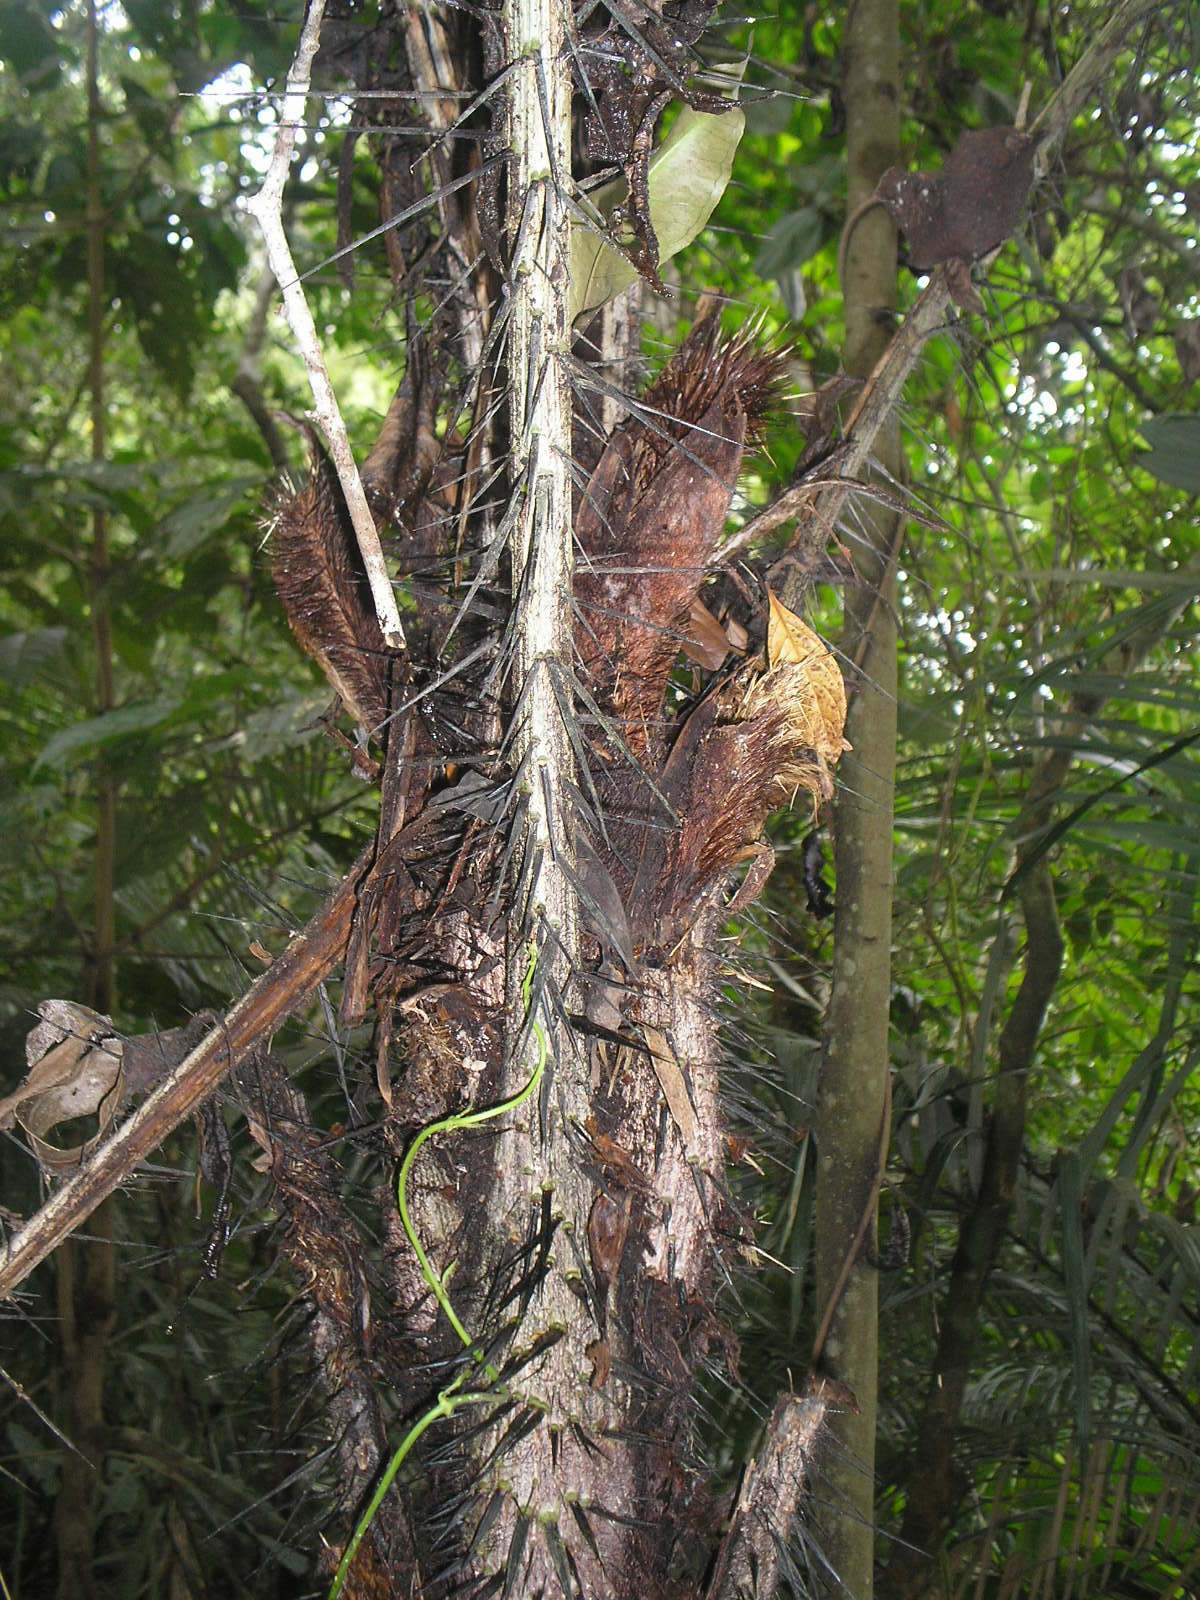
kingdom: Plantae
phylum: Tracheophyta
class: Liliopsida
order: Arecales
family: Arecaceae
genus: Astrocaryum
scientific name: Astrocaryum mexicanum
